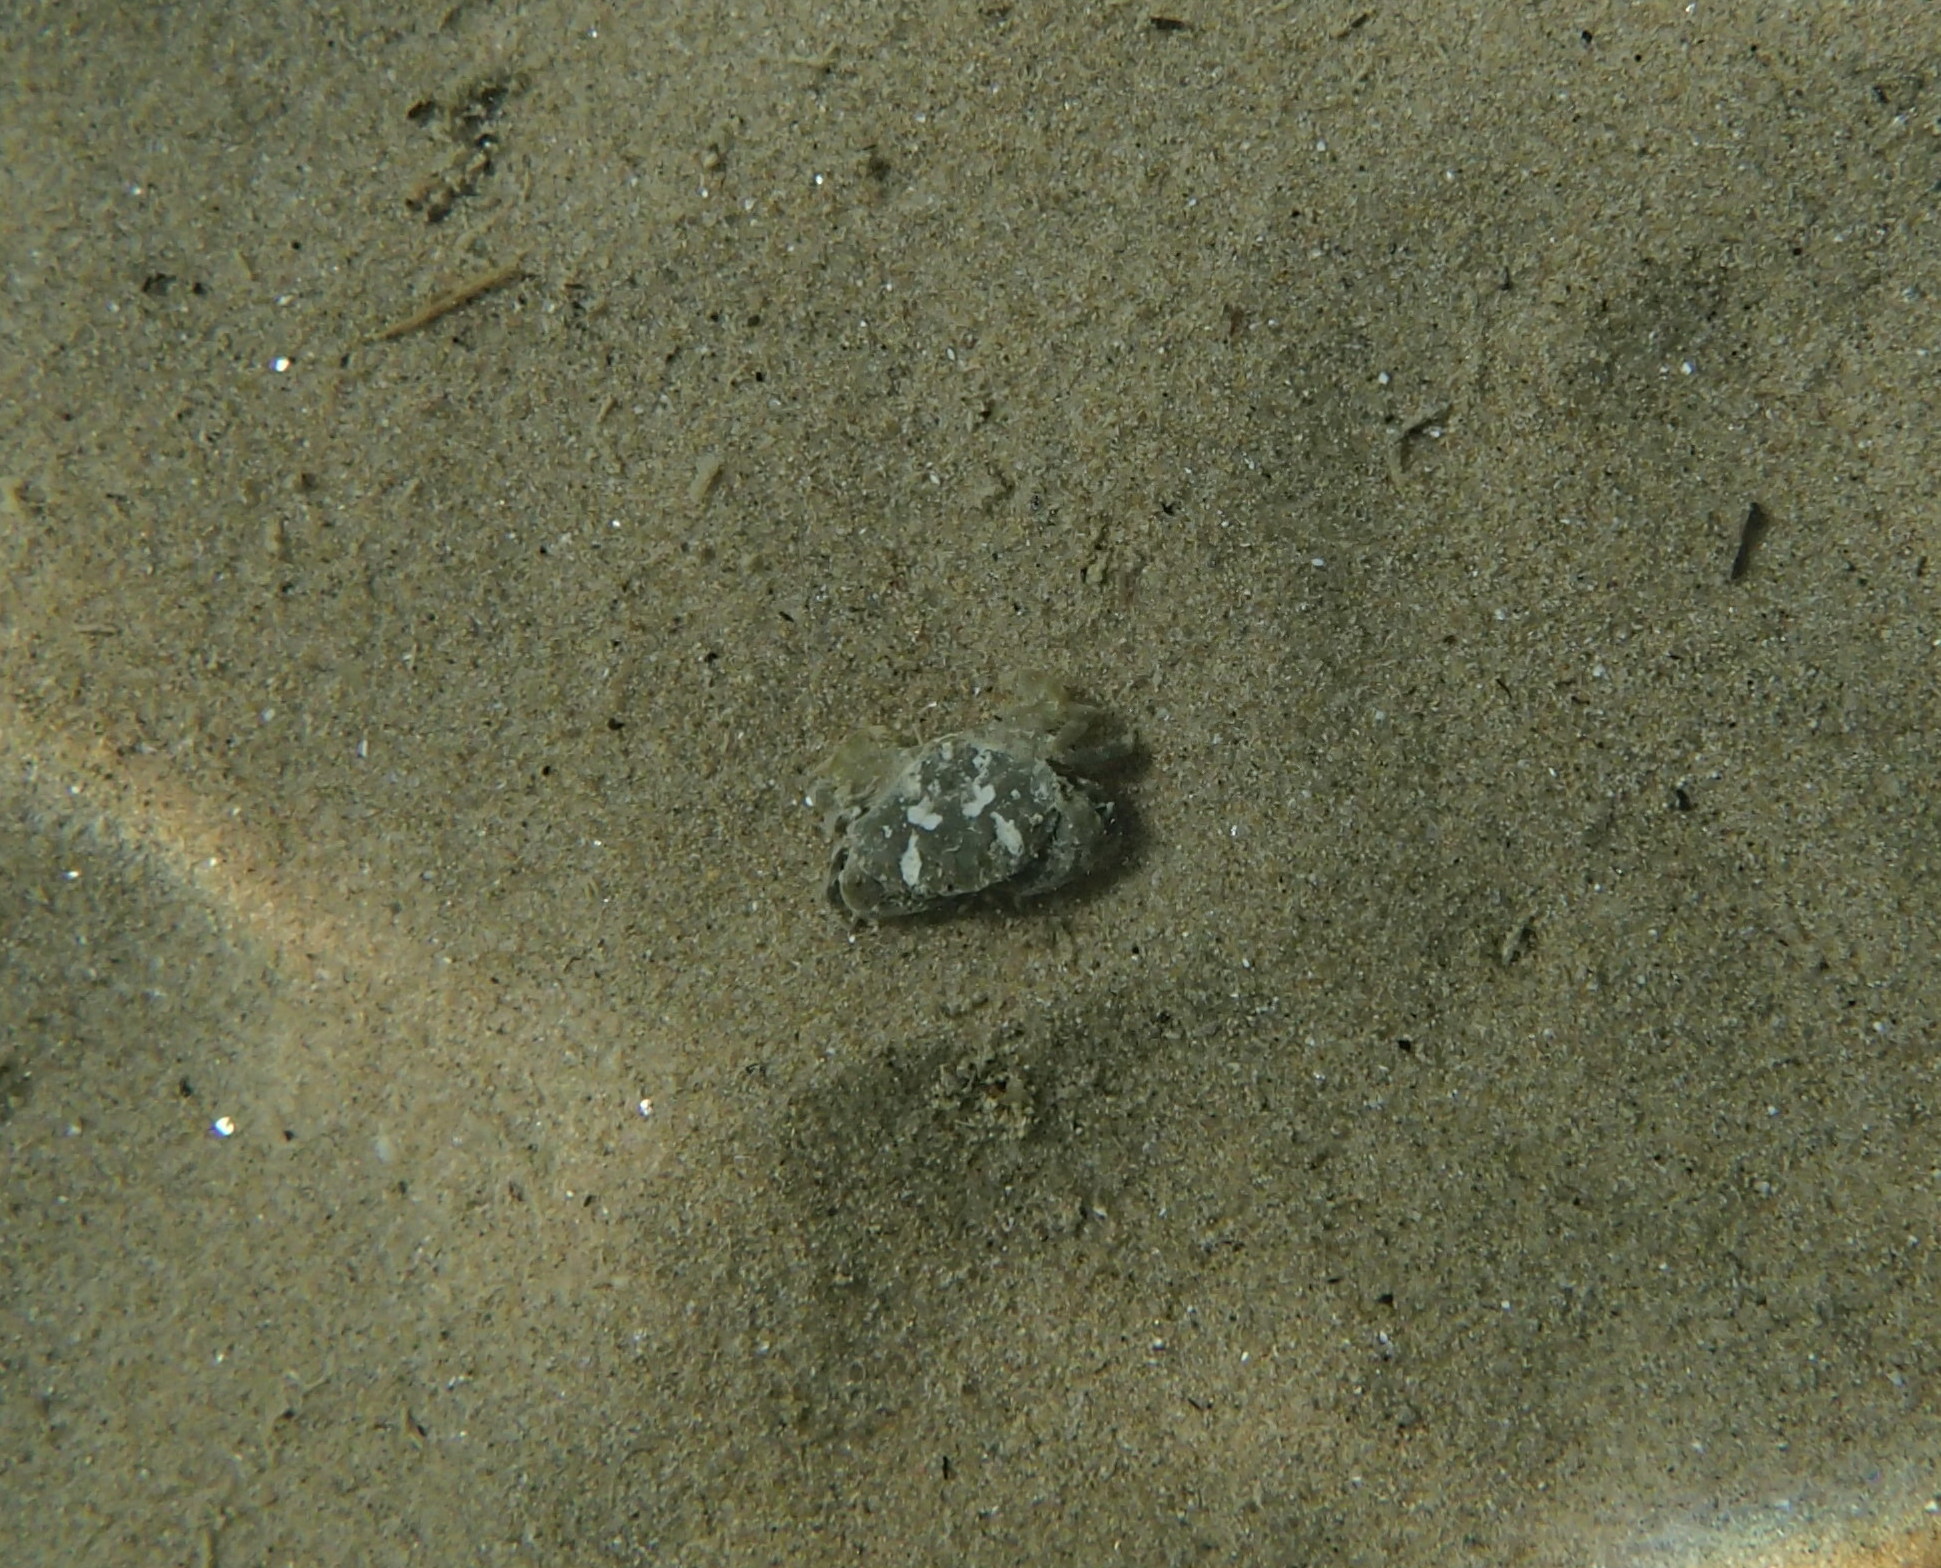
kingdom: Animalia
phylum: Arthropoda
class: Malacostraca
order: Decapoda
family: Xanthidae
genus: Xantho
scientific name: Xantho poressa
